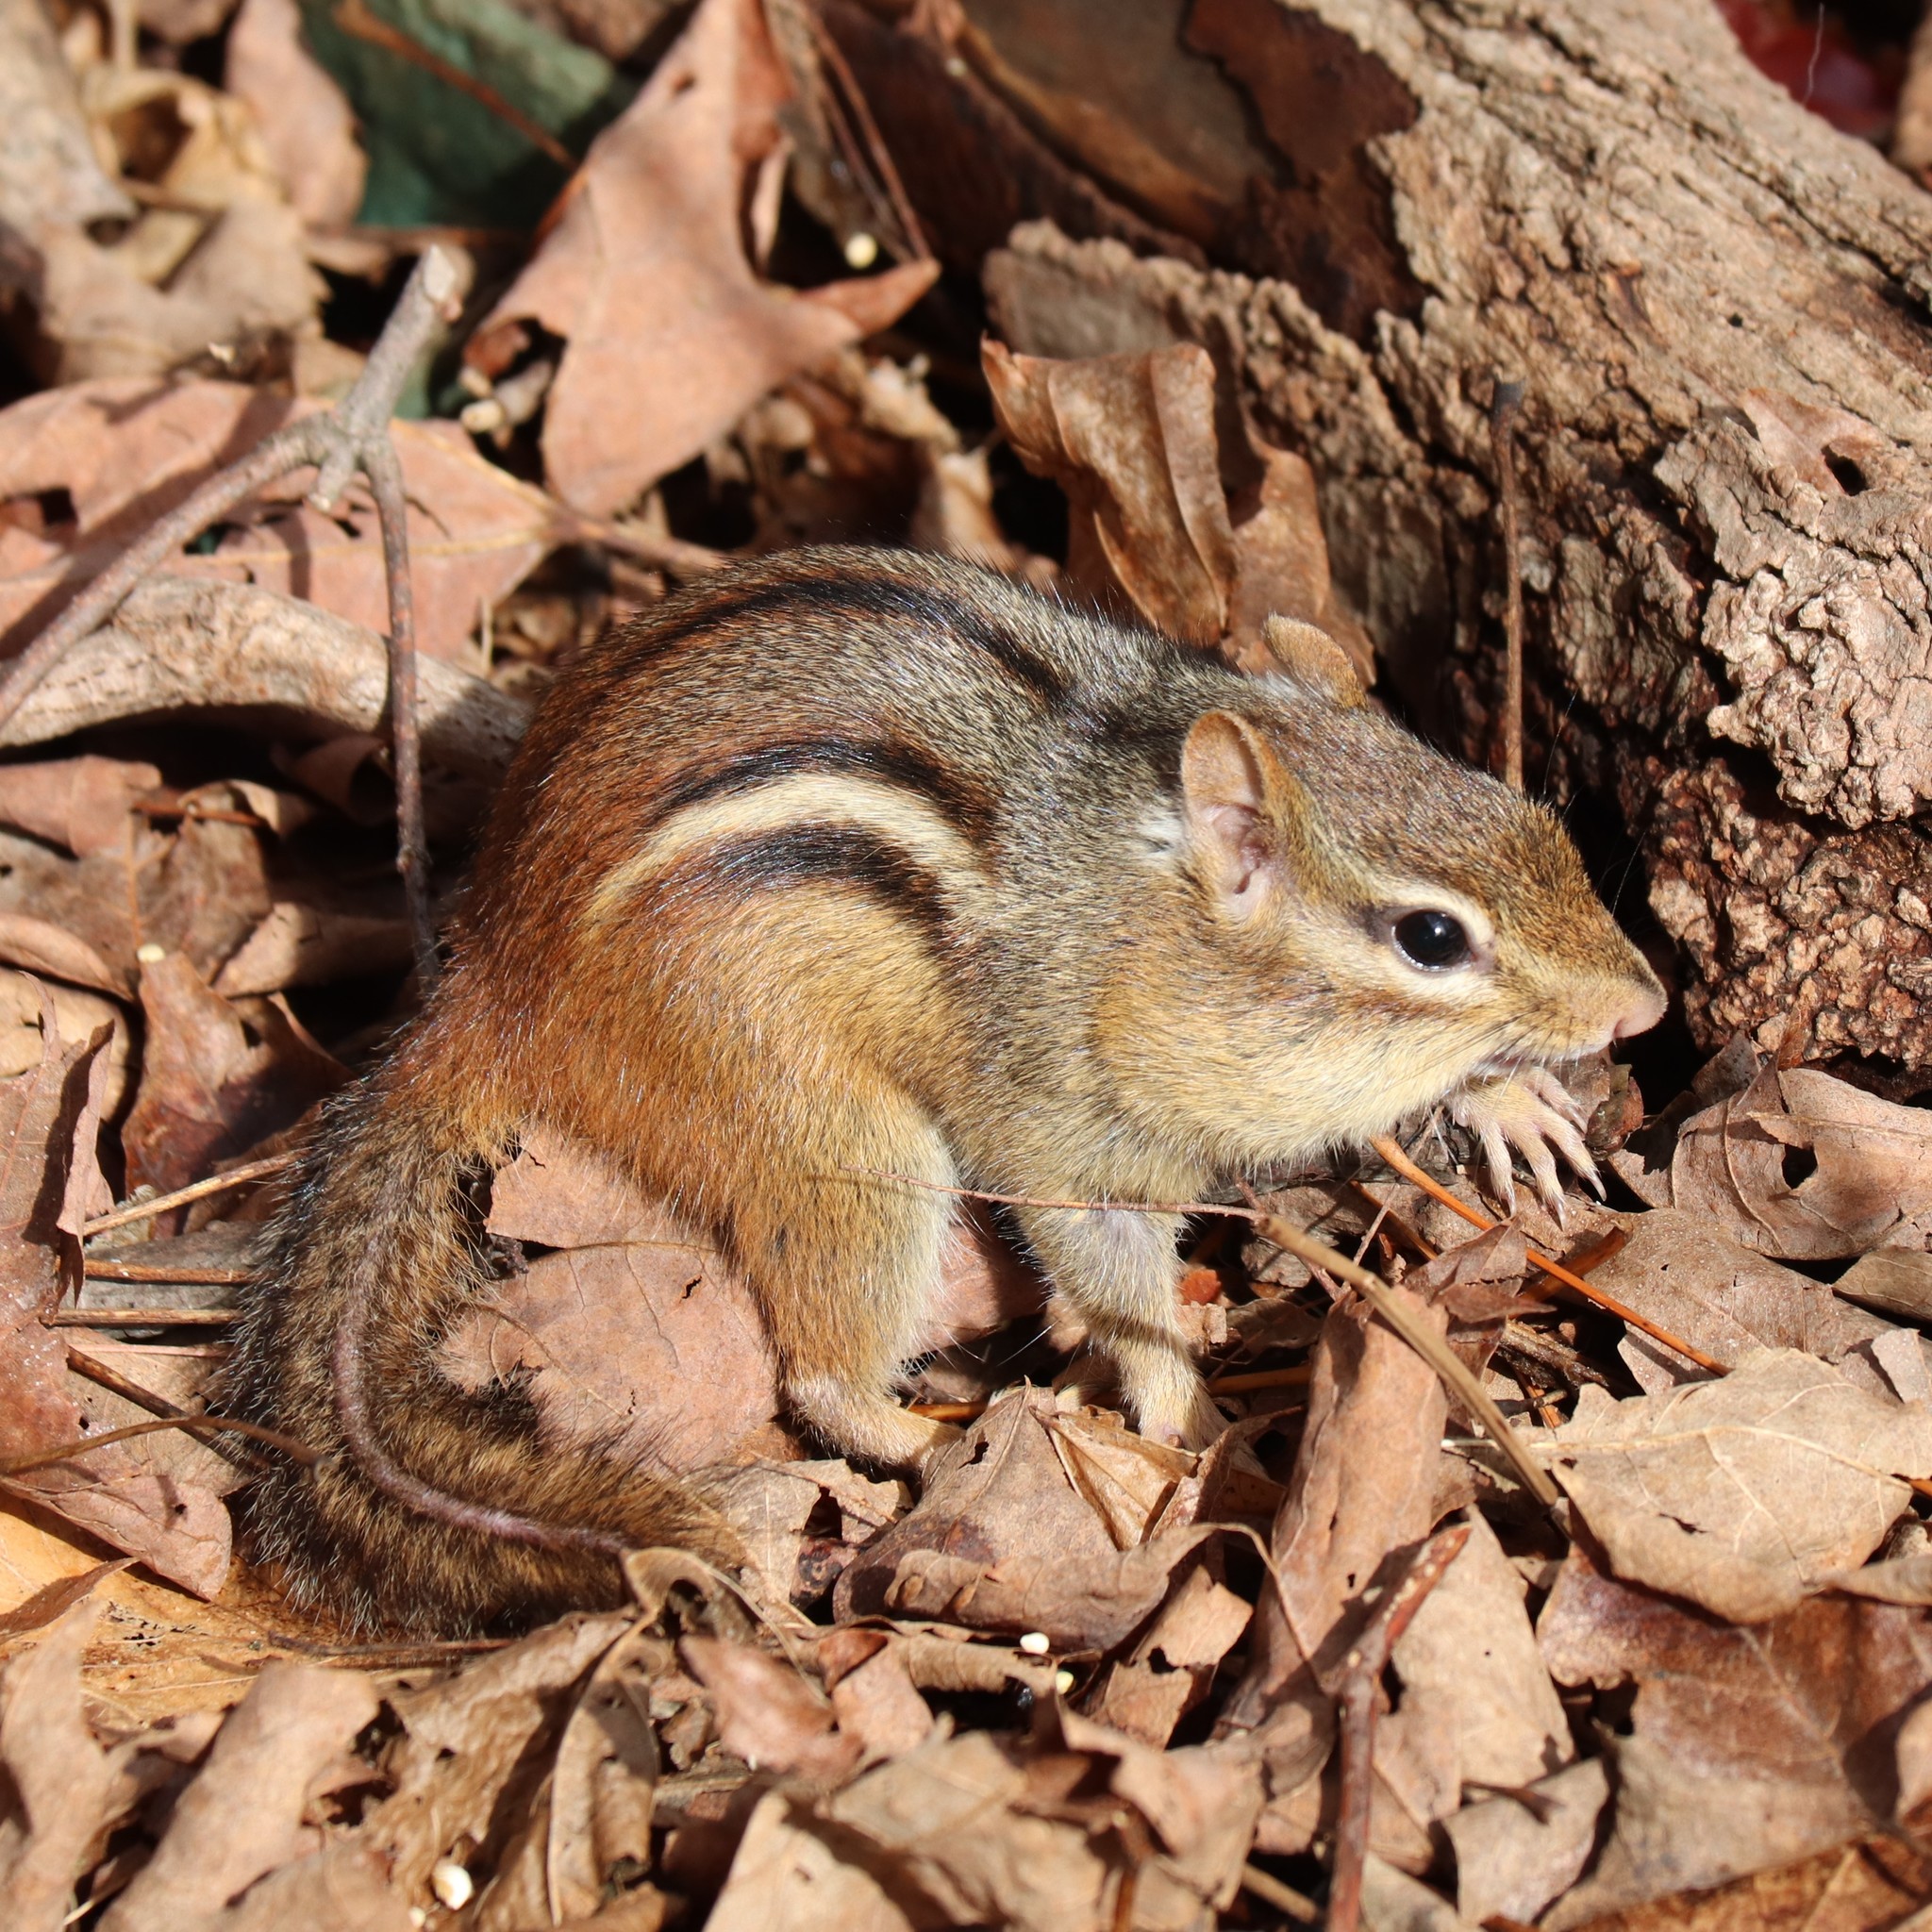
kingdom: Animalia
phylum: Chordata
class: Mammalia
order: Rodentia
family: Sciuridae
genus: Tamias
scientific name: Tamias striatus
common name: Eastern chipmunk
